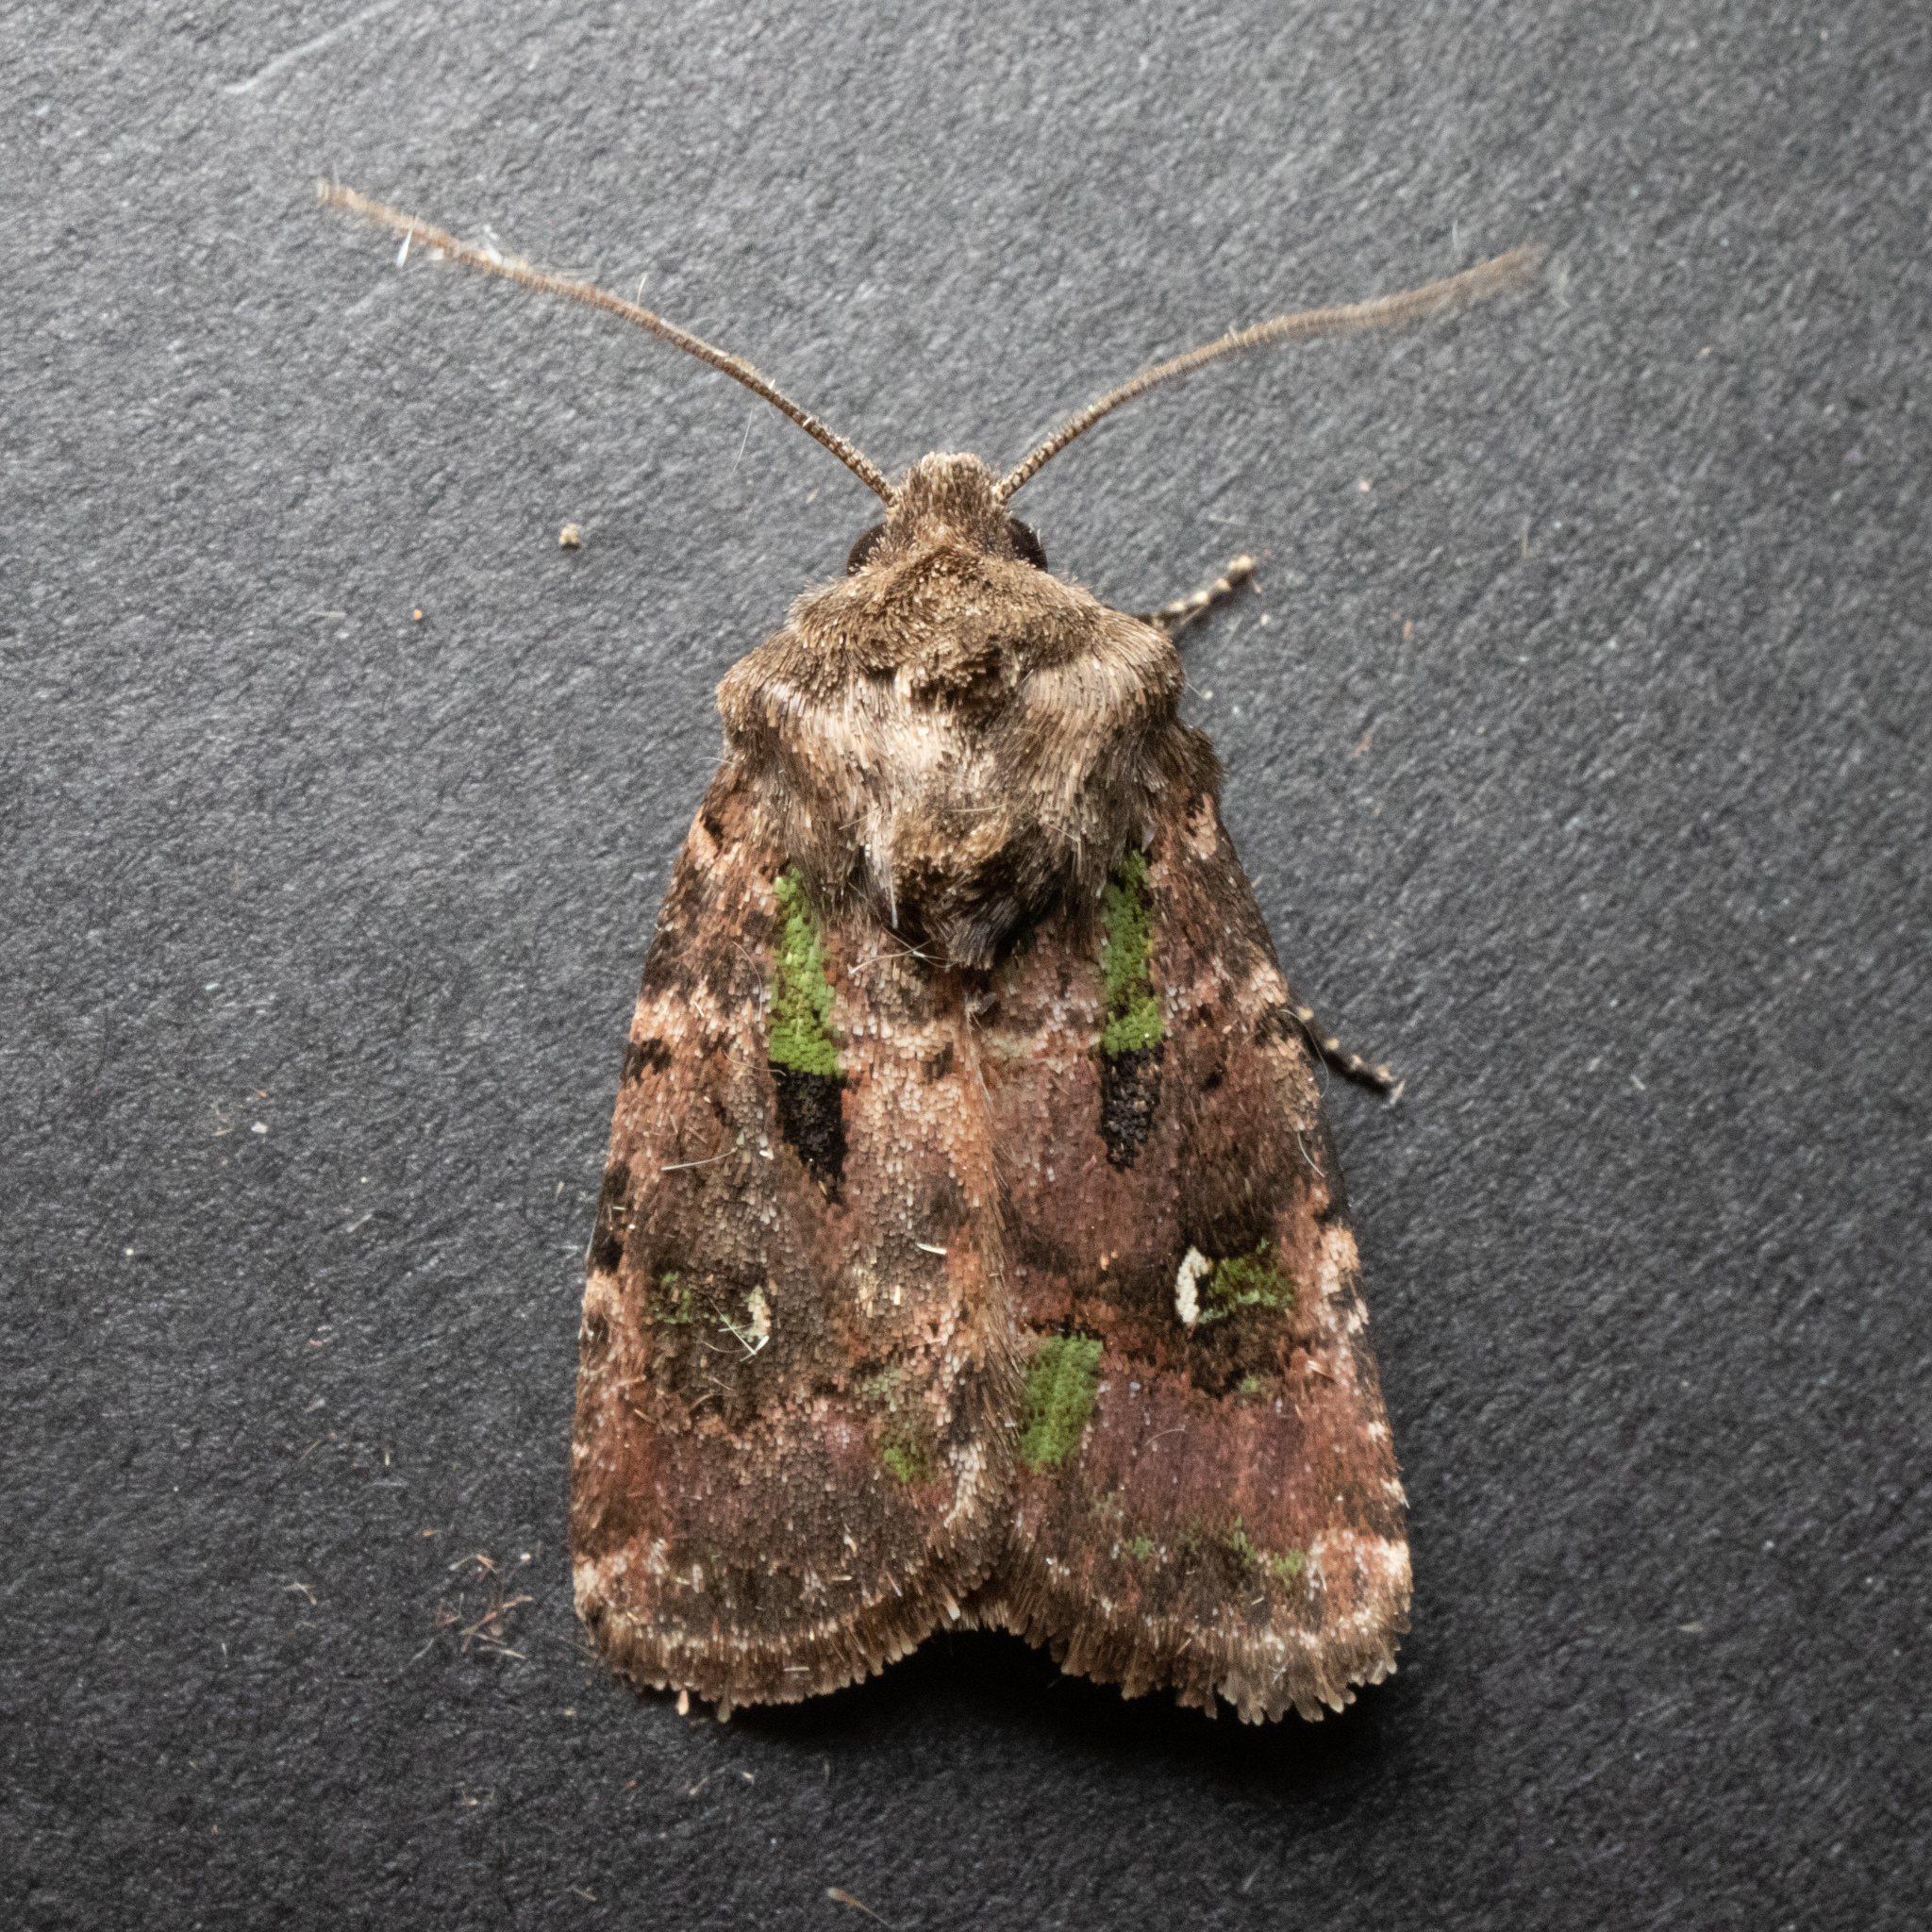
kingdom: Animalia
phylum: Arthropoda
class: Insecta
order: Lepidoptera
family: Noctuidae
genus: Lacinipolia
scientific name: Lacinipolia renigera
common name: Kidney-spotted minor
